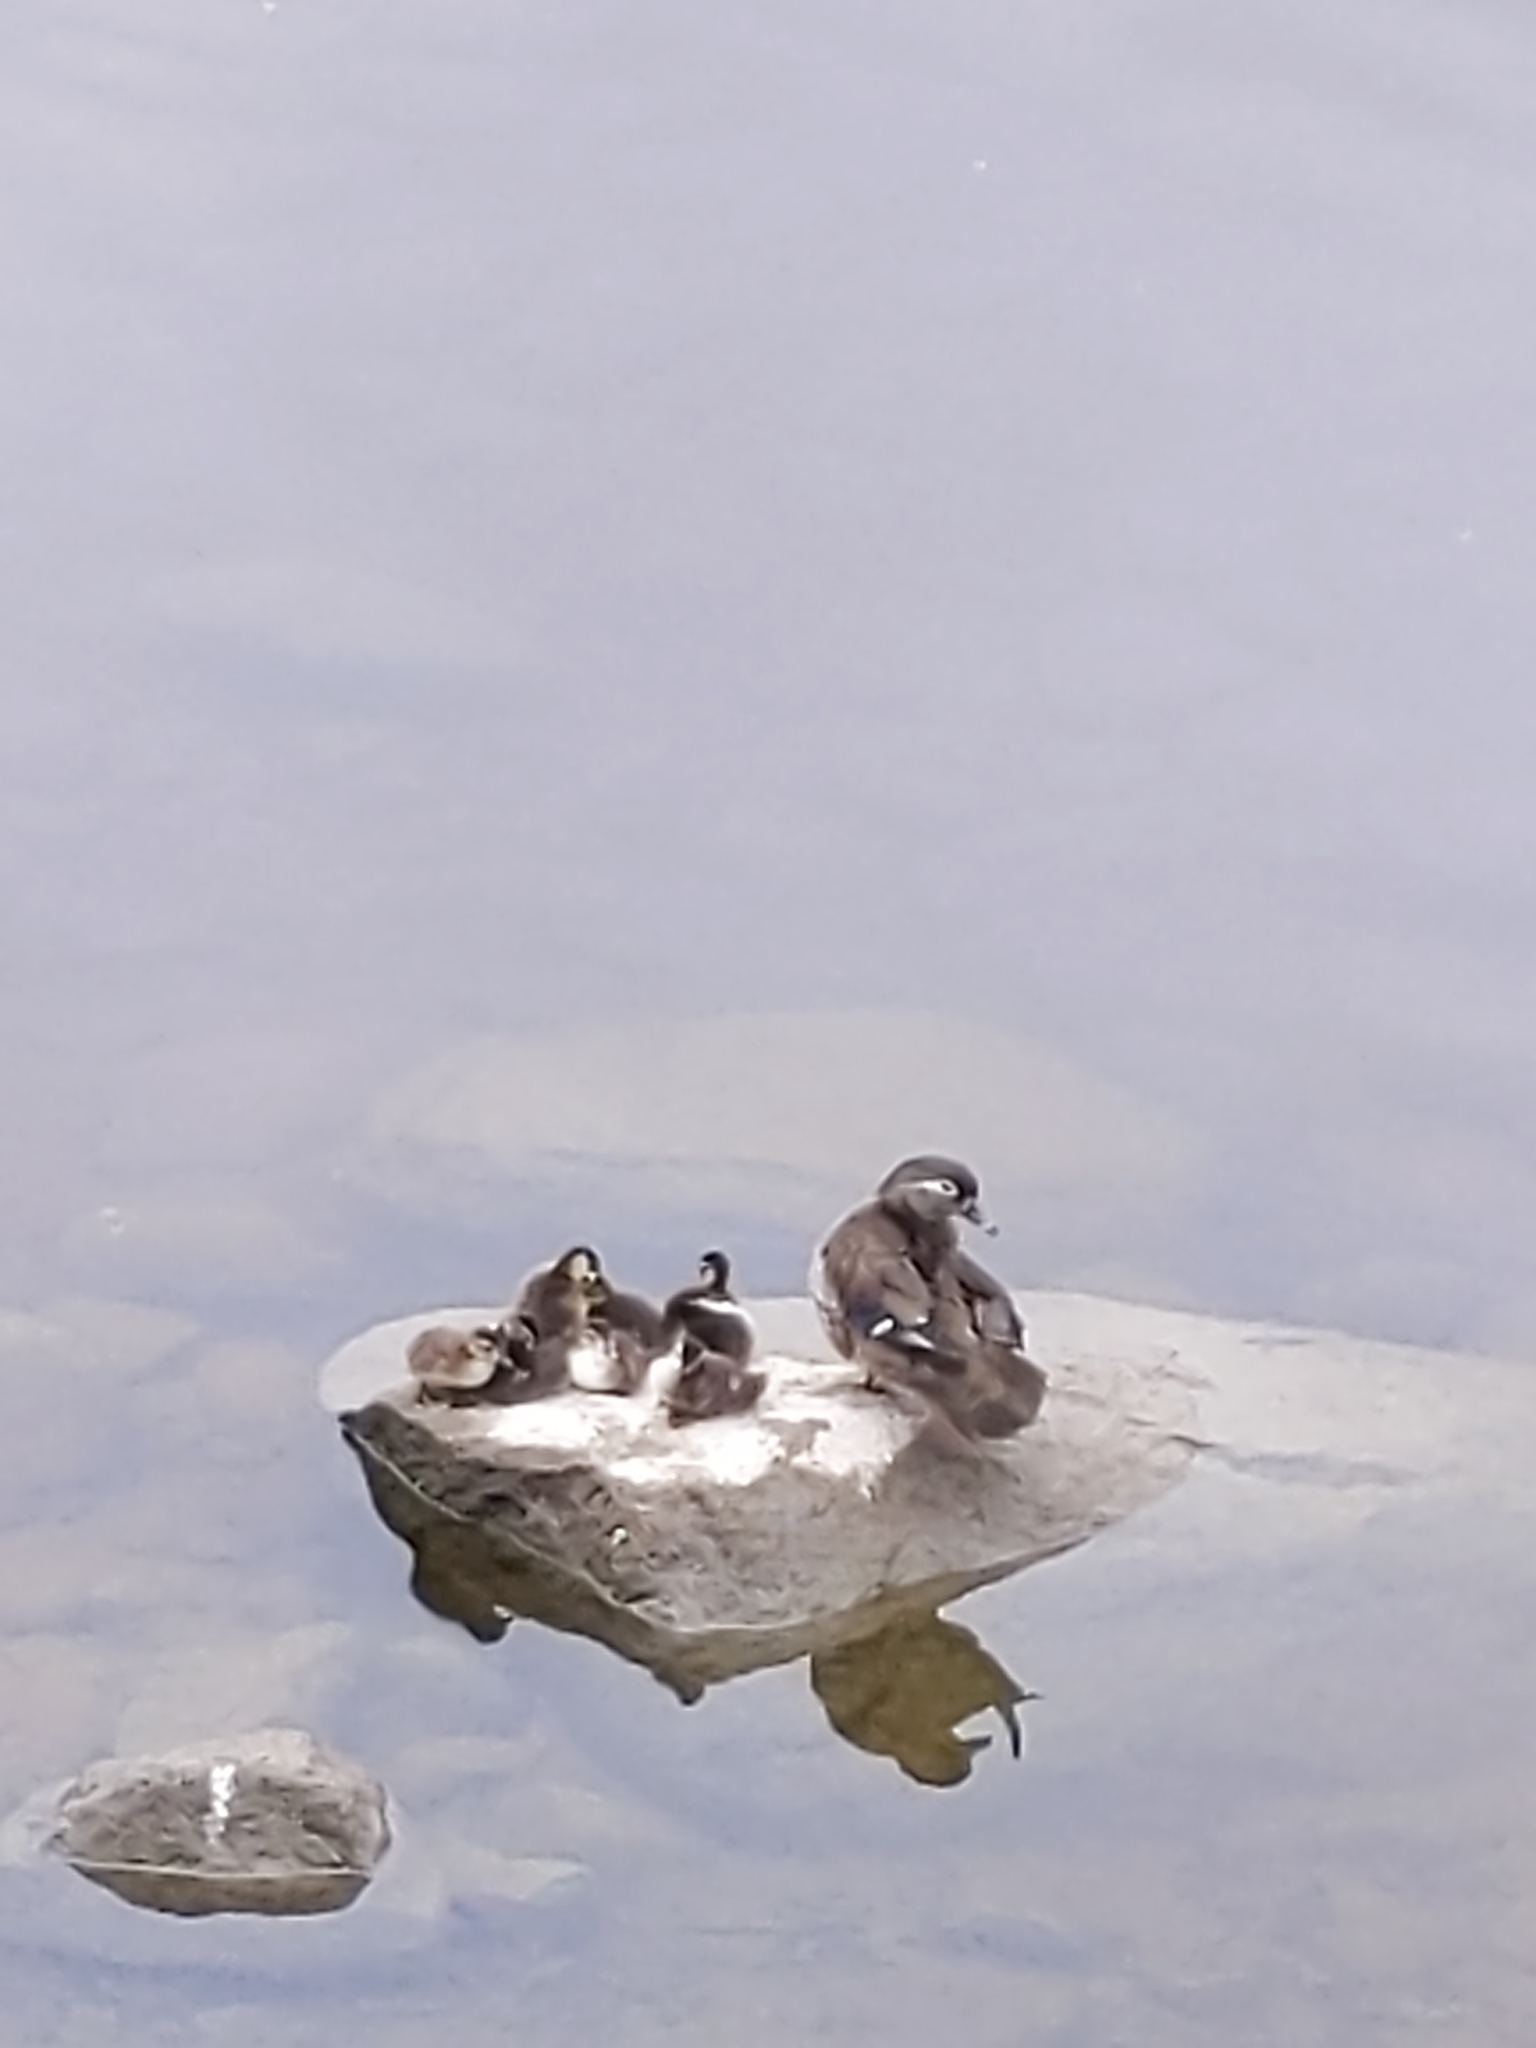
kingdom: Animalia
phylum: Chordata
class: Aves
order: Anseriformes
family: Anatidae
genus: Aix
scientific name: Aix sponsa
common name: Wood duck
